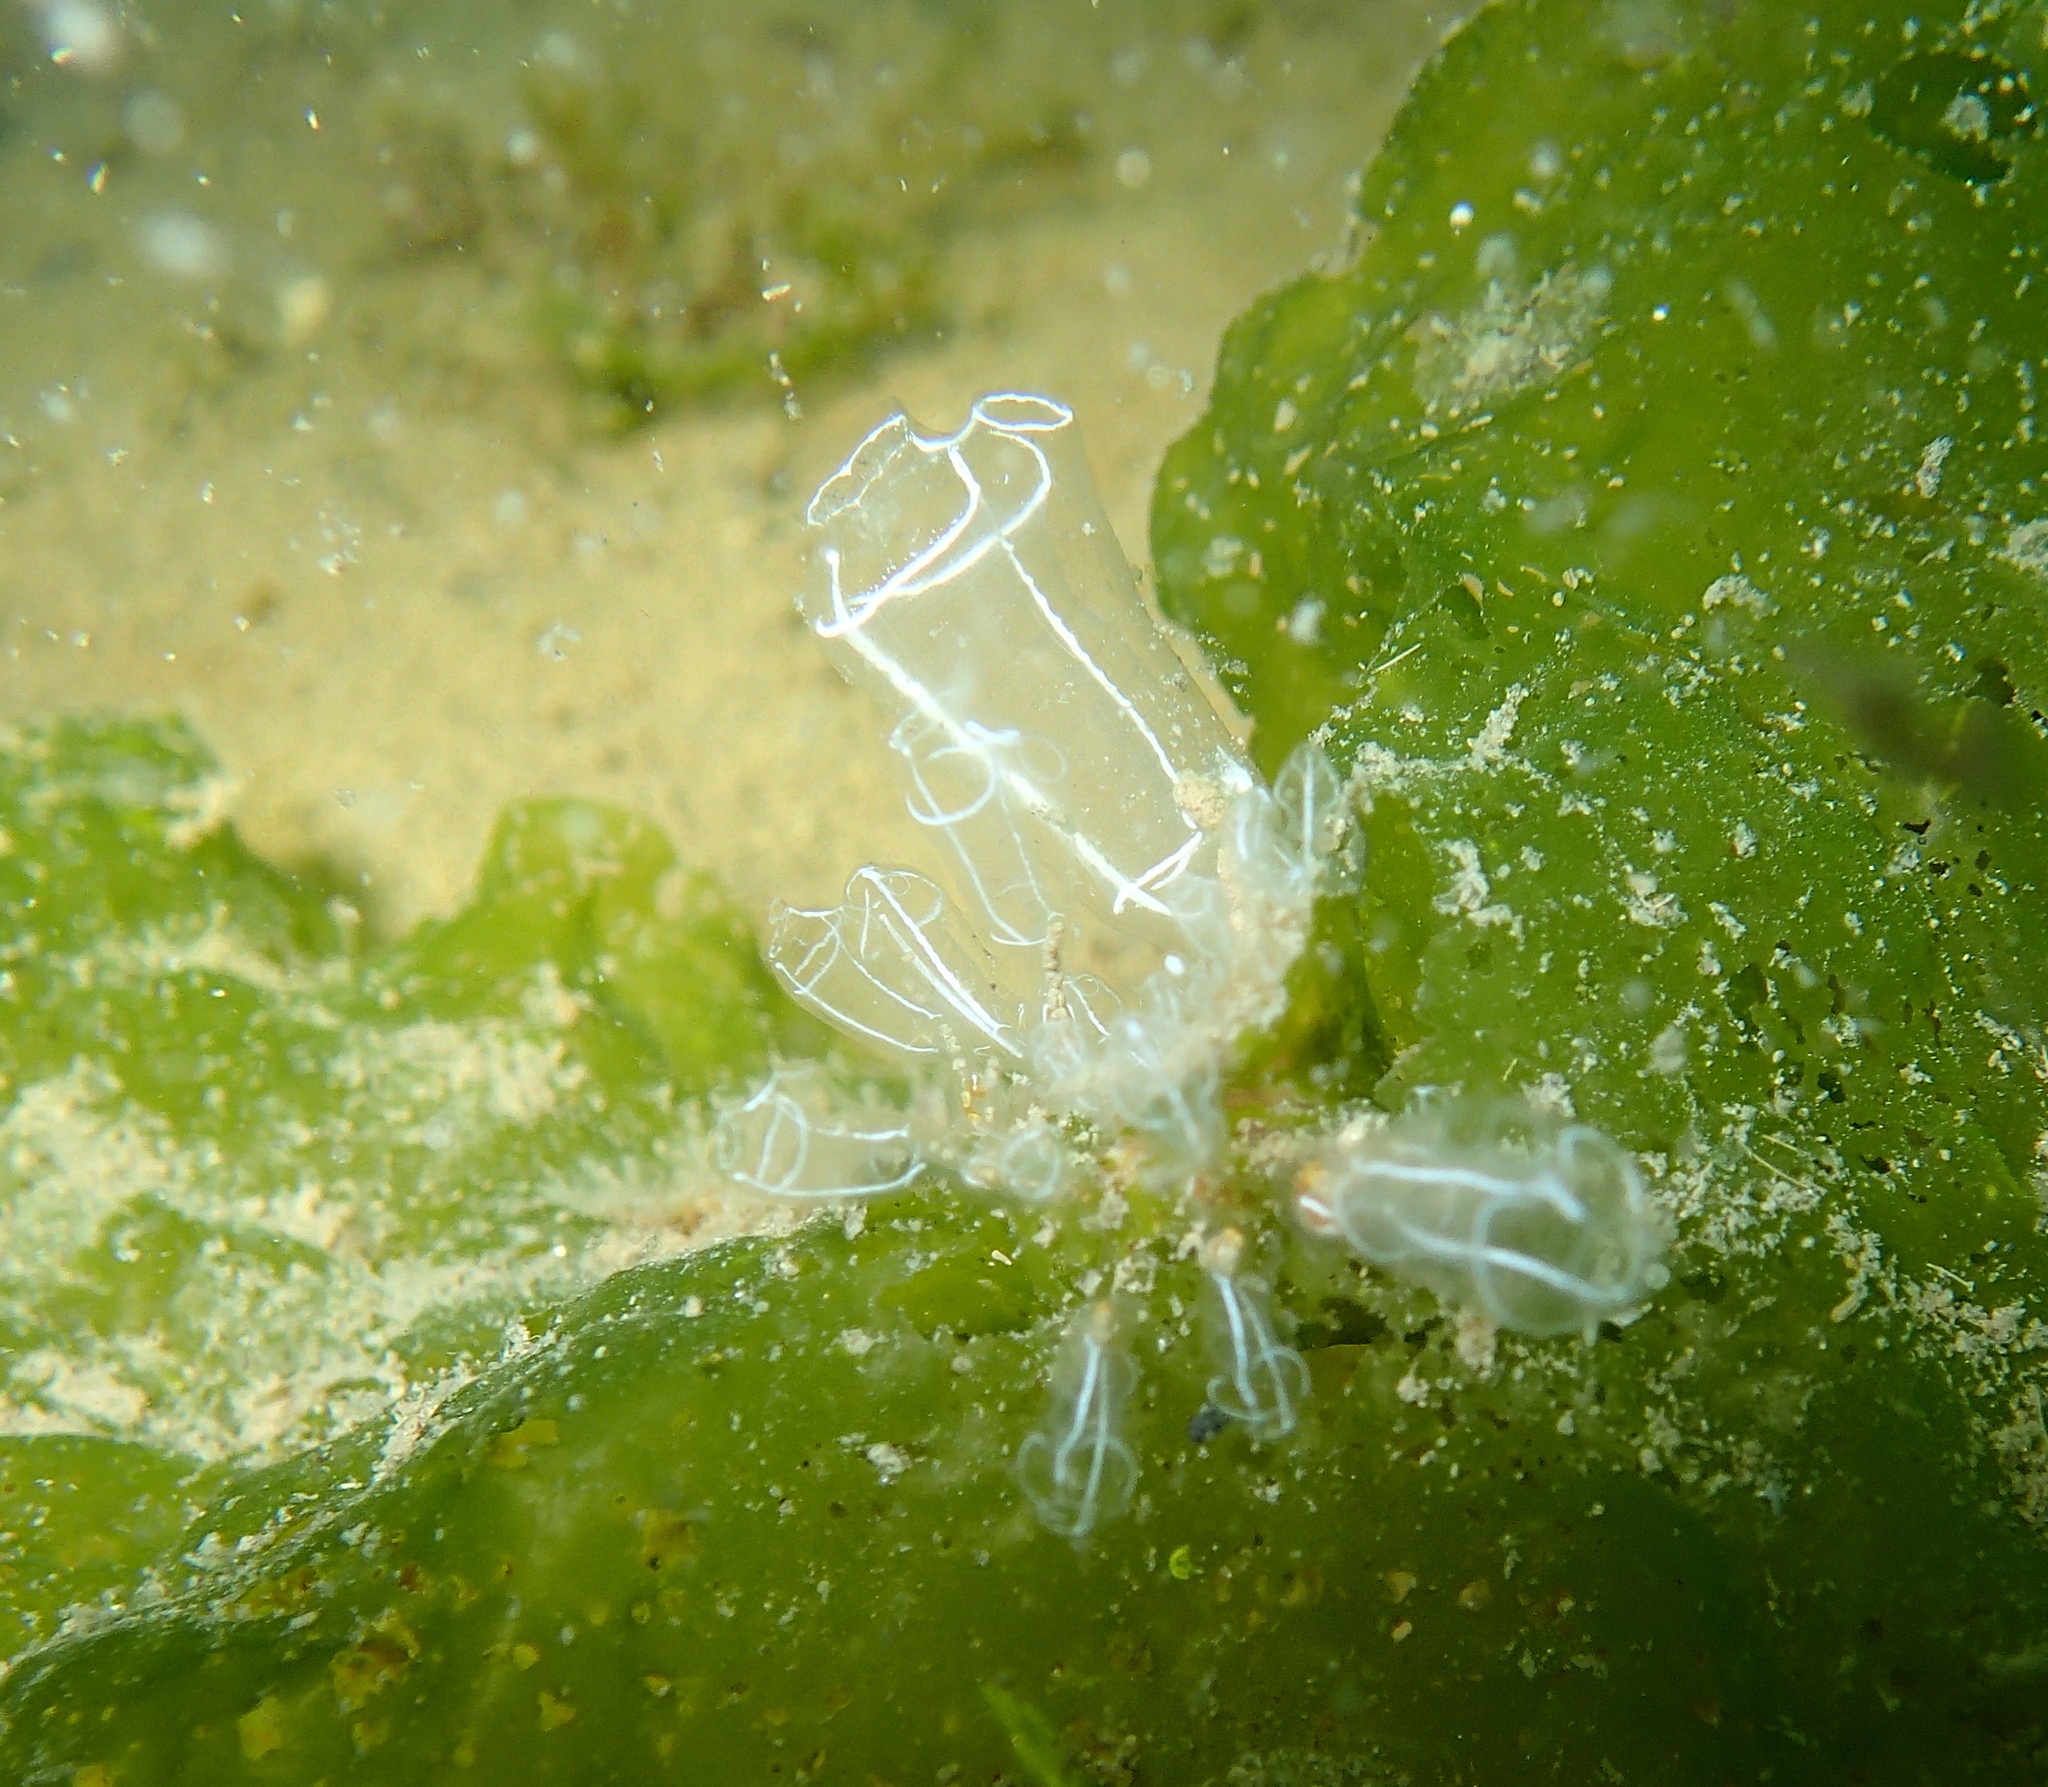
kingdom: Animalia
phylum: Chordata
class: Ascidiacea
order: Aplousobranchia
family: Clavelinidae
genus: Clavelina
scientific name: Clavelina lepadiformis
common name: Light bulb tunicate
